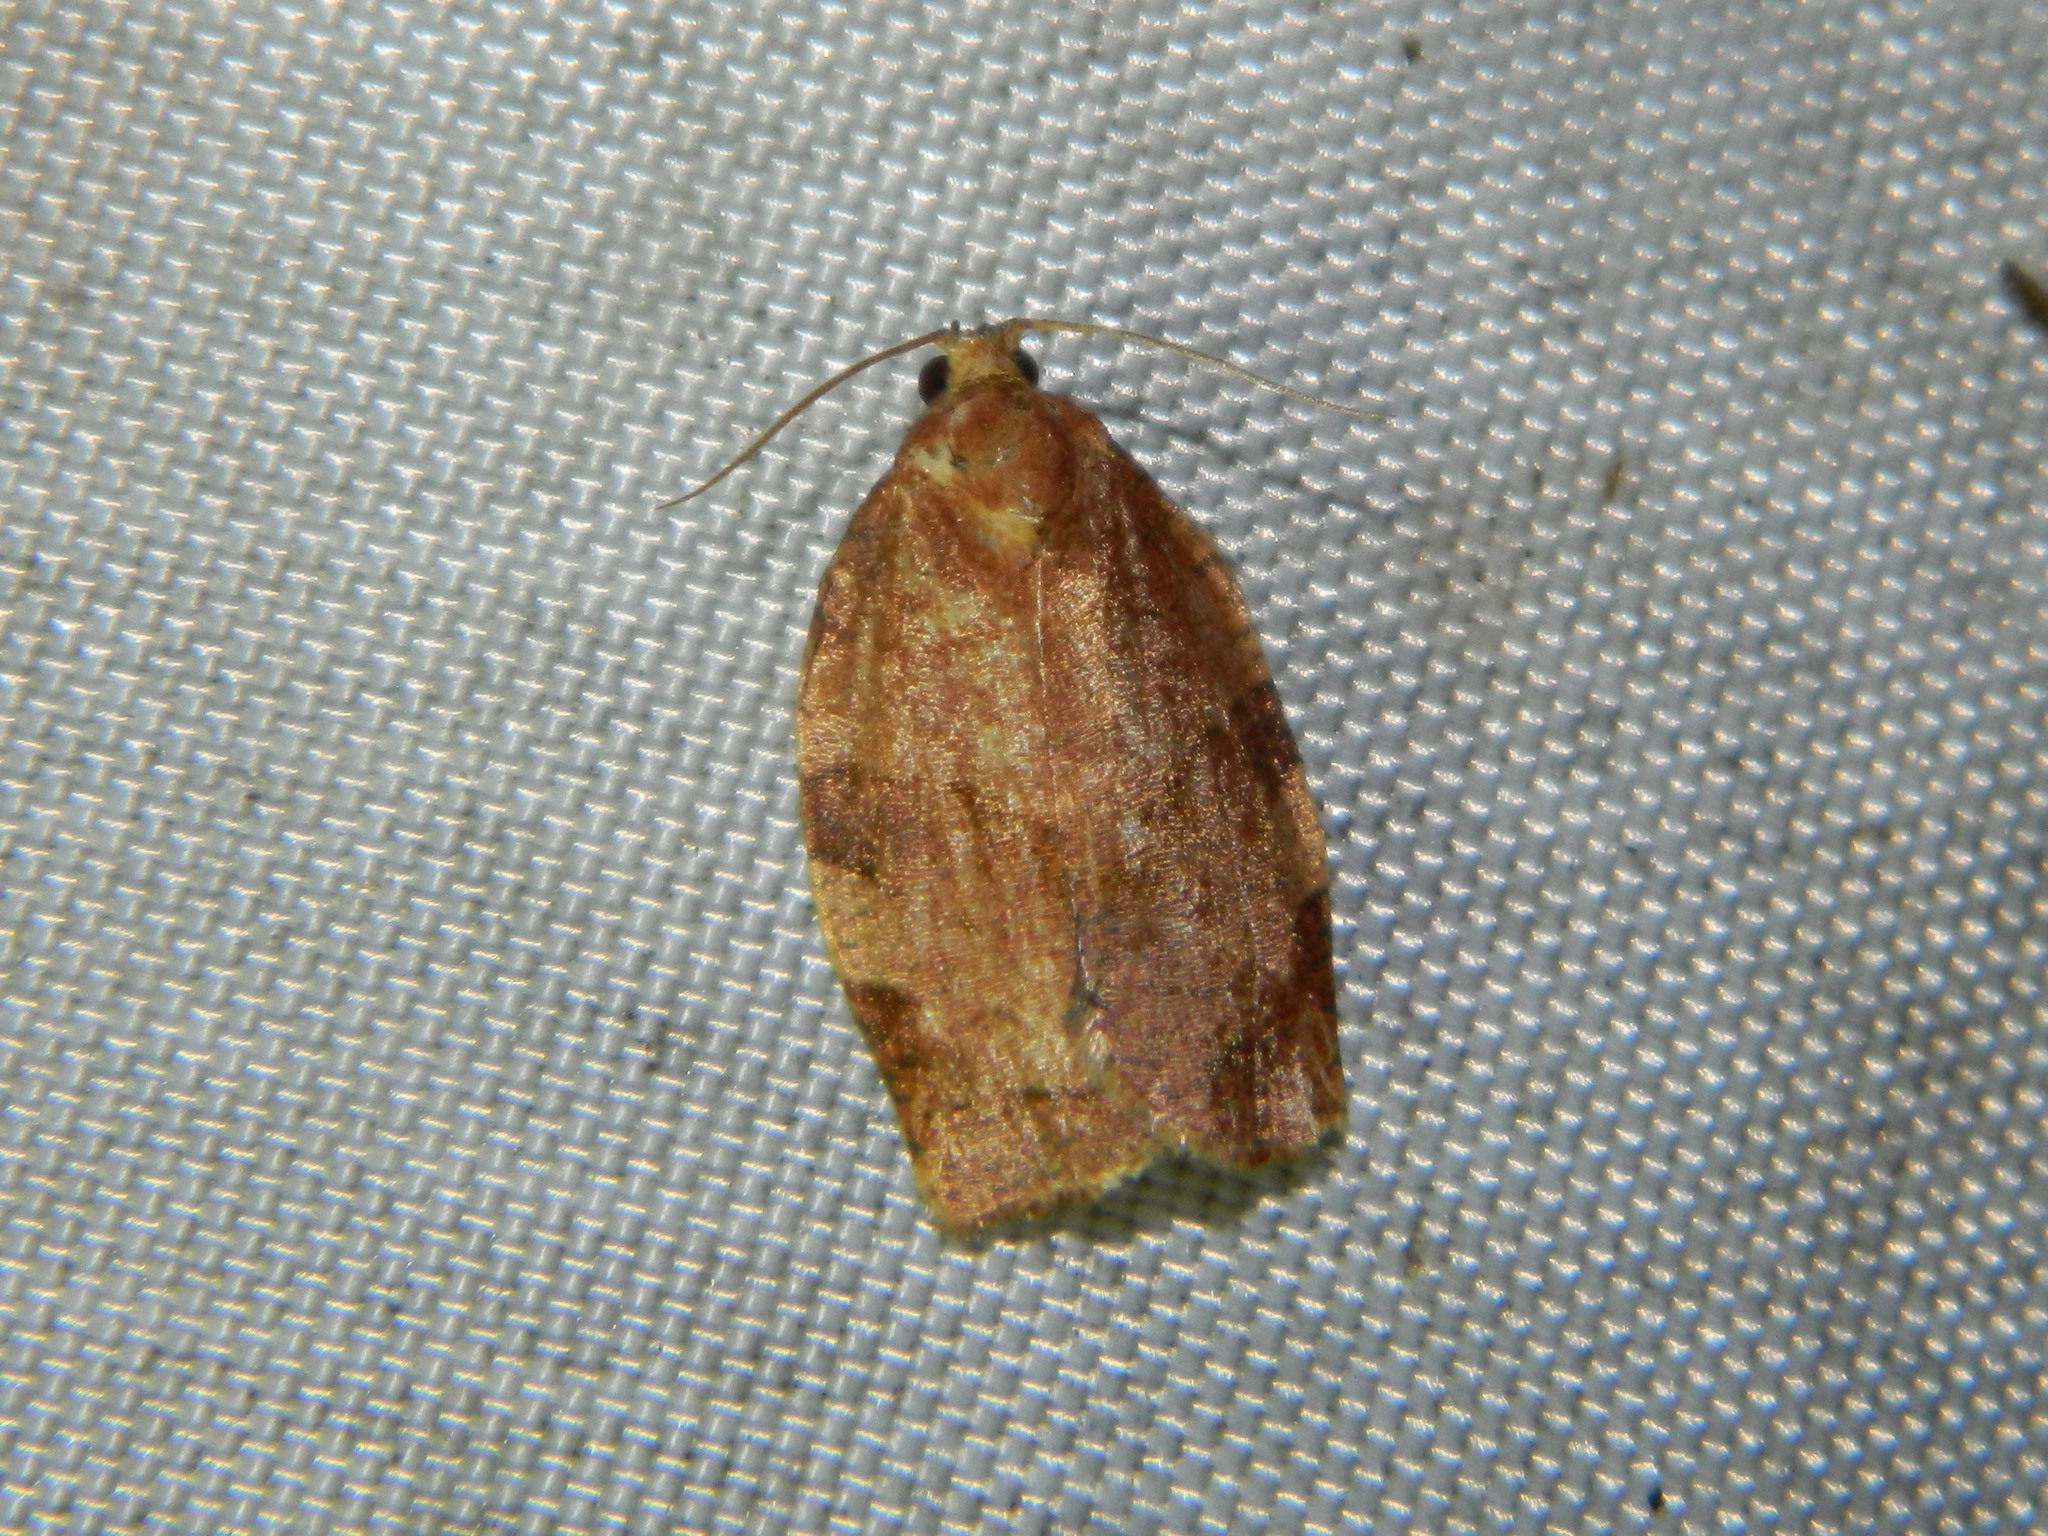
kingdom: Animalia
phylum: Arthropoda
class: Insecta
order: Lepidoptera
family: Tortricidae
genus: Choristoneura
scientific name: Choristoneura rosaceana
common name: Oblique-banded leafroller moth
